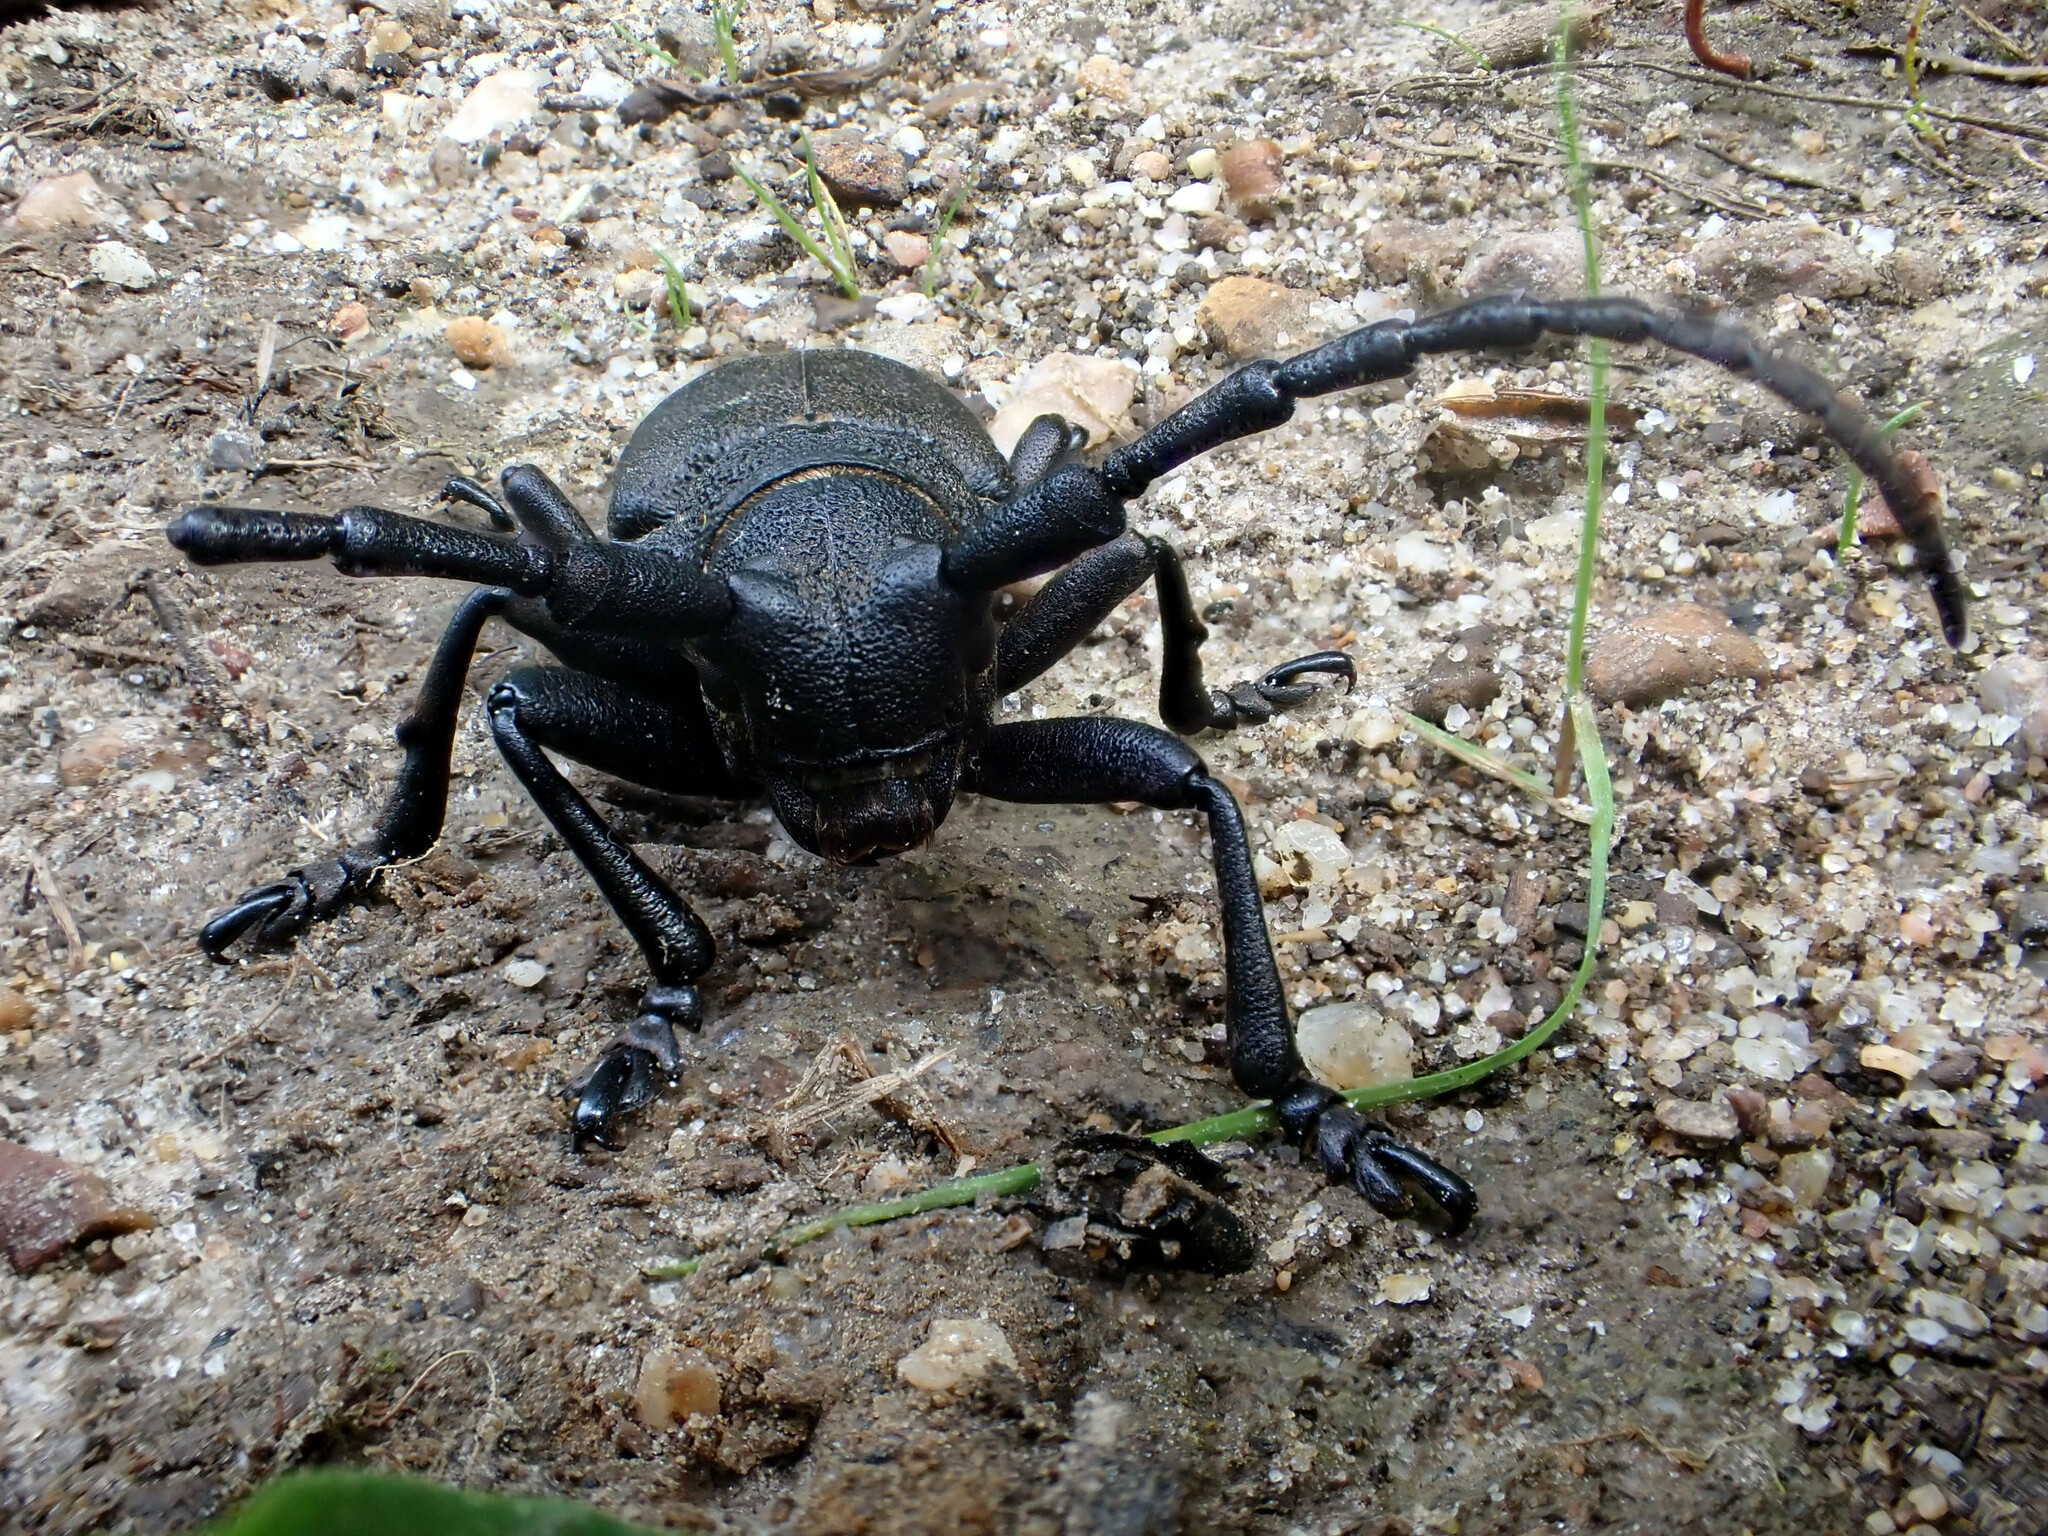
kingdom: Animalia
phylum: Arthropoda
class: Insecta
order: Coleoptera
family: Cerambycidae
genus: Lamia
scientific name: Lamia textor
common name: Weaver beetle
